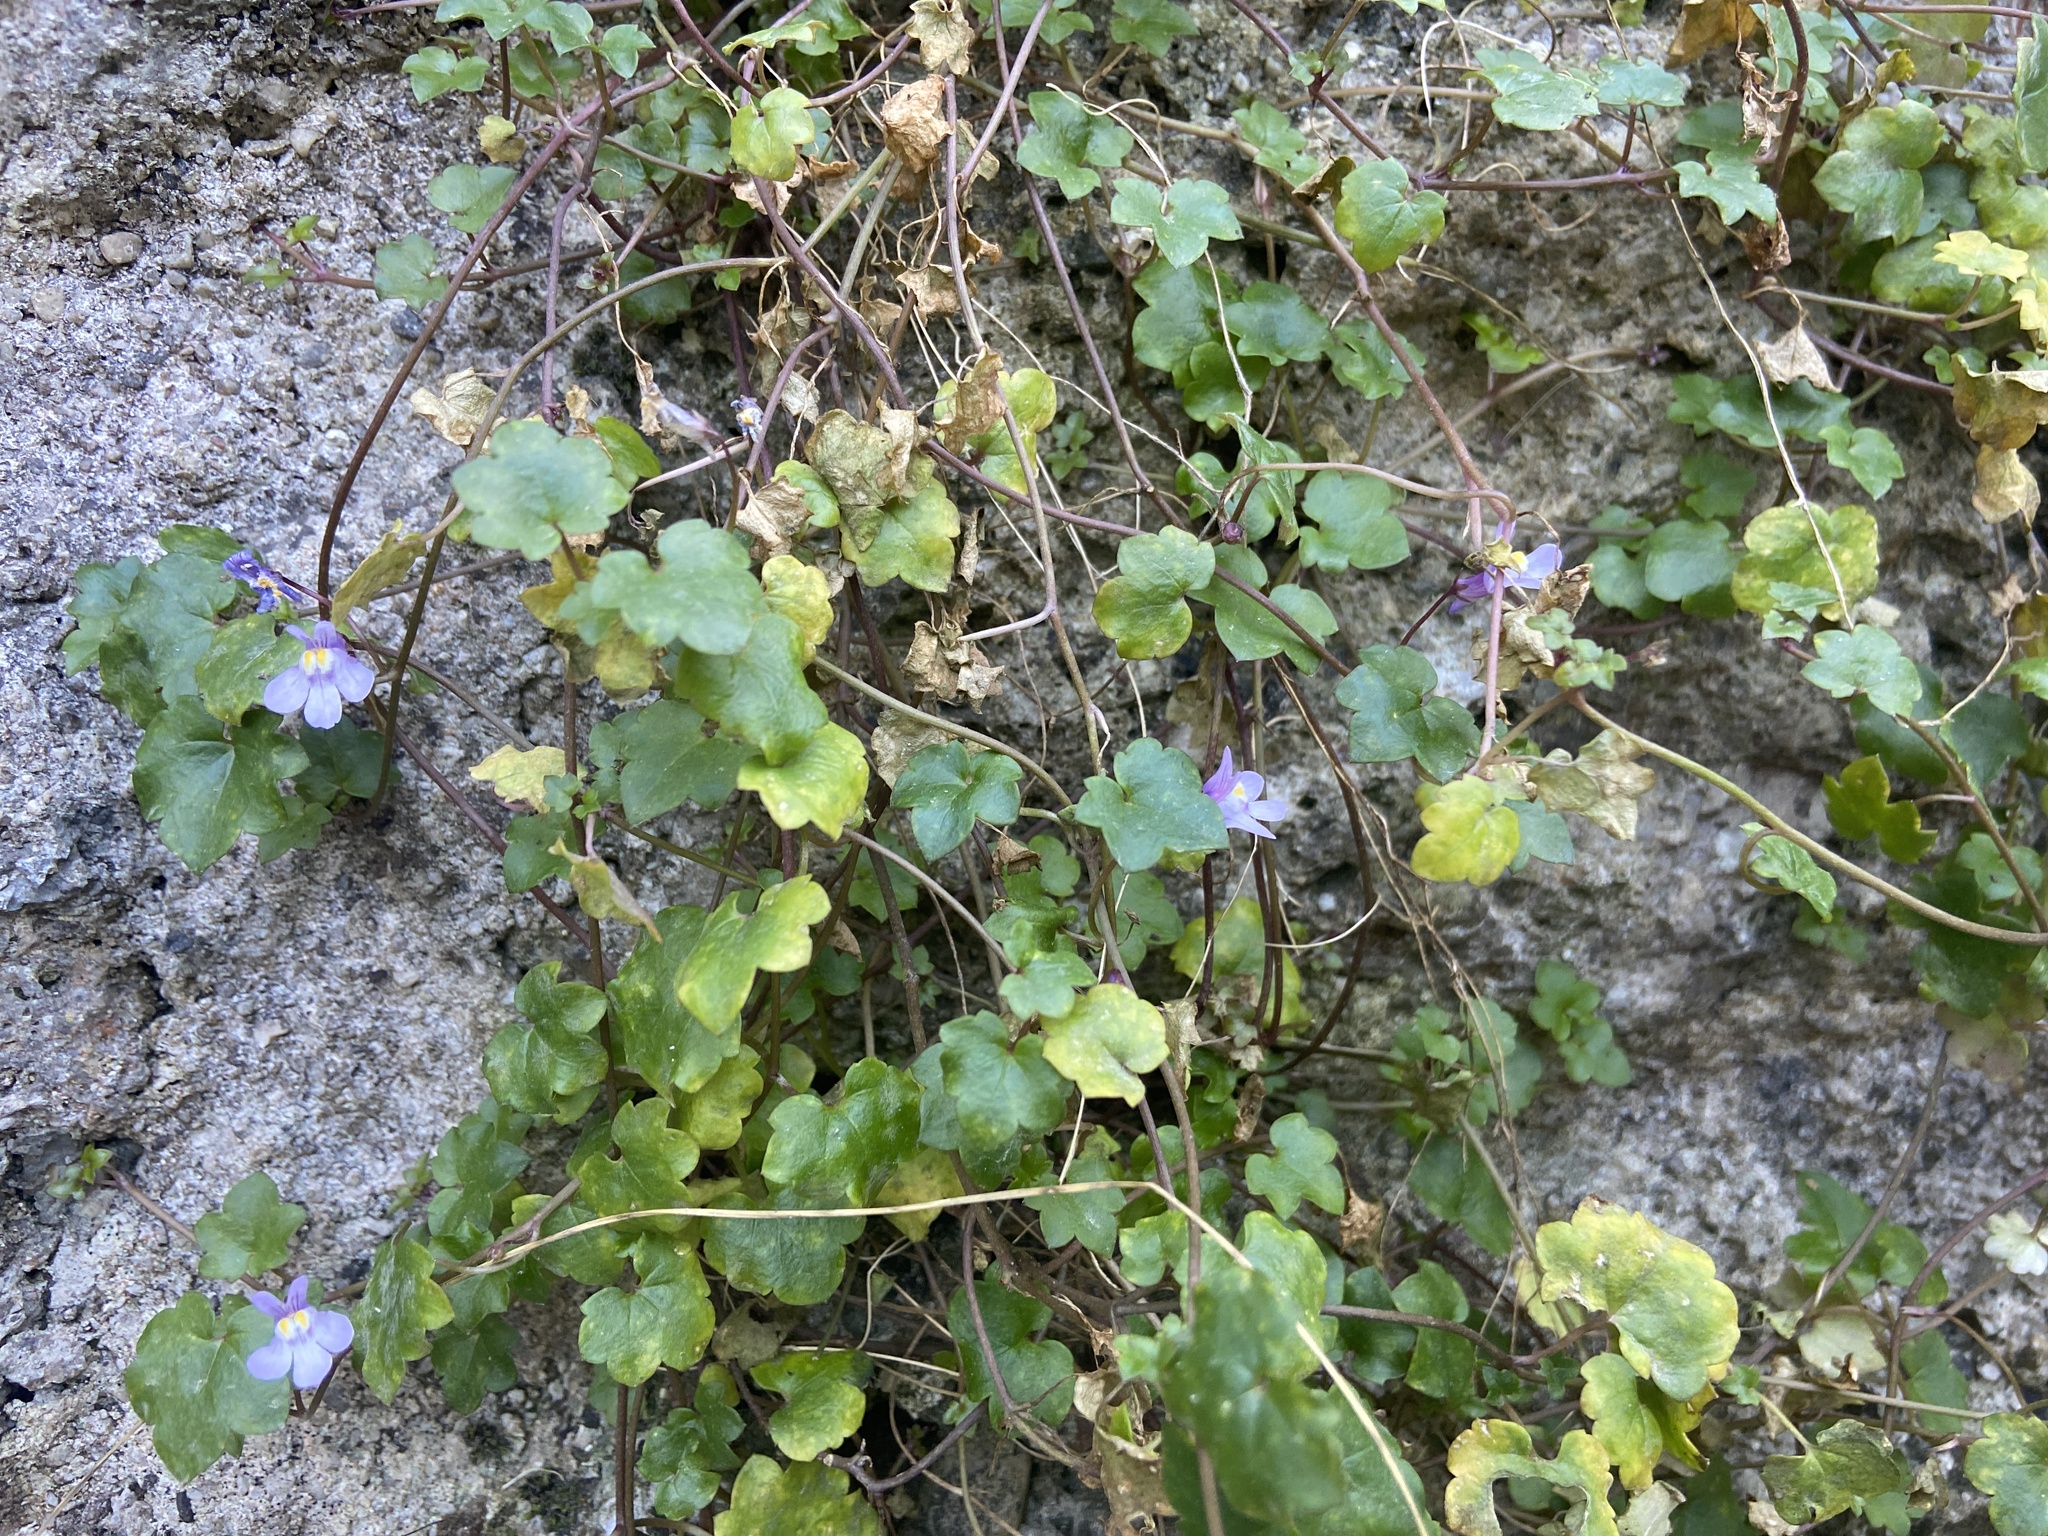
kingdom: Plantae
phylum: Tracheophyta
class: Magnoliopsida
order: Lamiales
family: Plantaginaceae
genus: Cymbalaria
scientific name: Cymbalaria muralis
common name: Ivy-leaved toadflax
